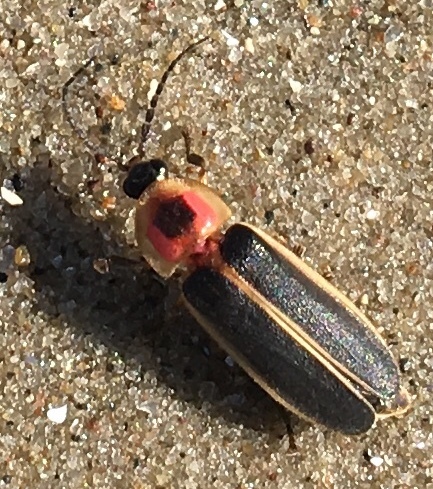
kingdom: Animalia
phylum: Arthropoda
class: Insecta
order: Coleoptera
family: Lampyridae
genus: Photinus
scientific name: Photinus pyralis
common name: Big dipper firefly
